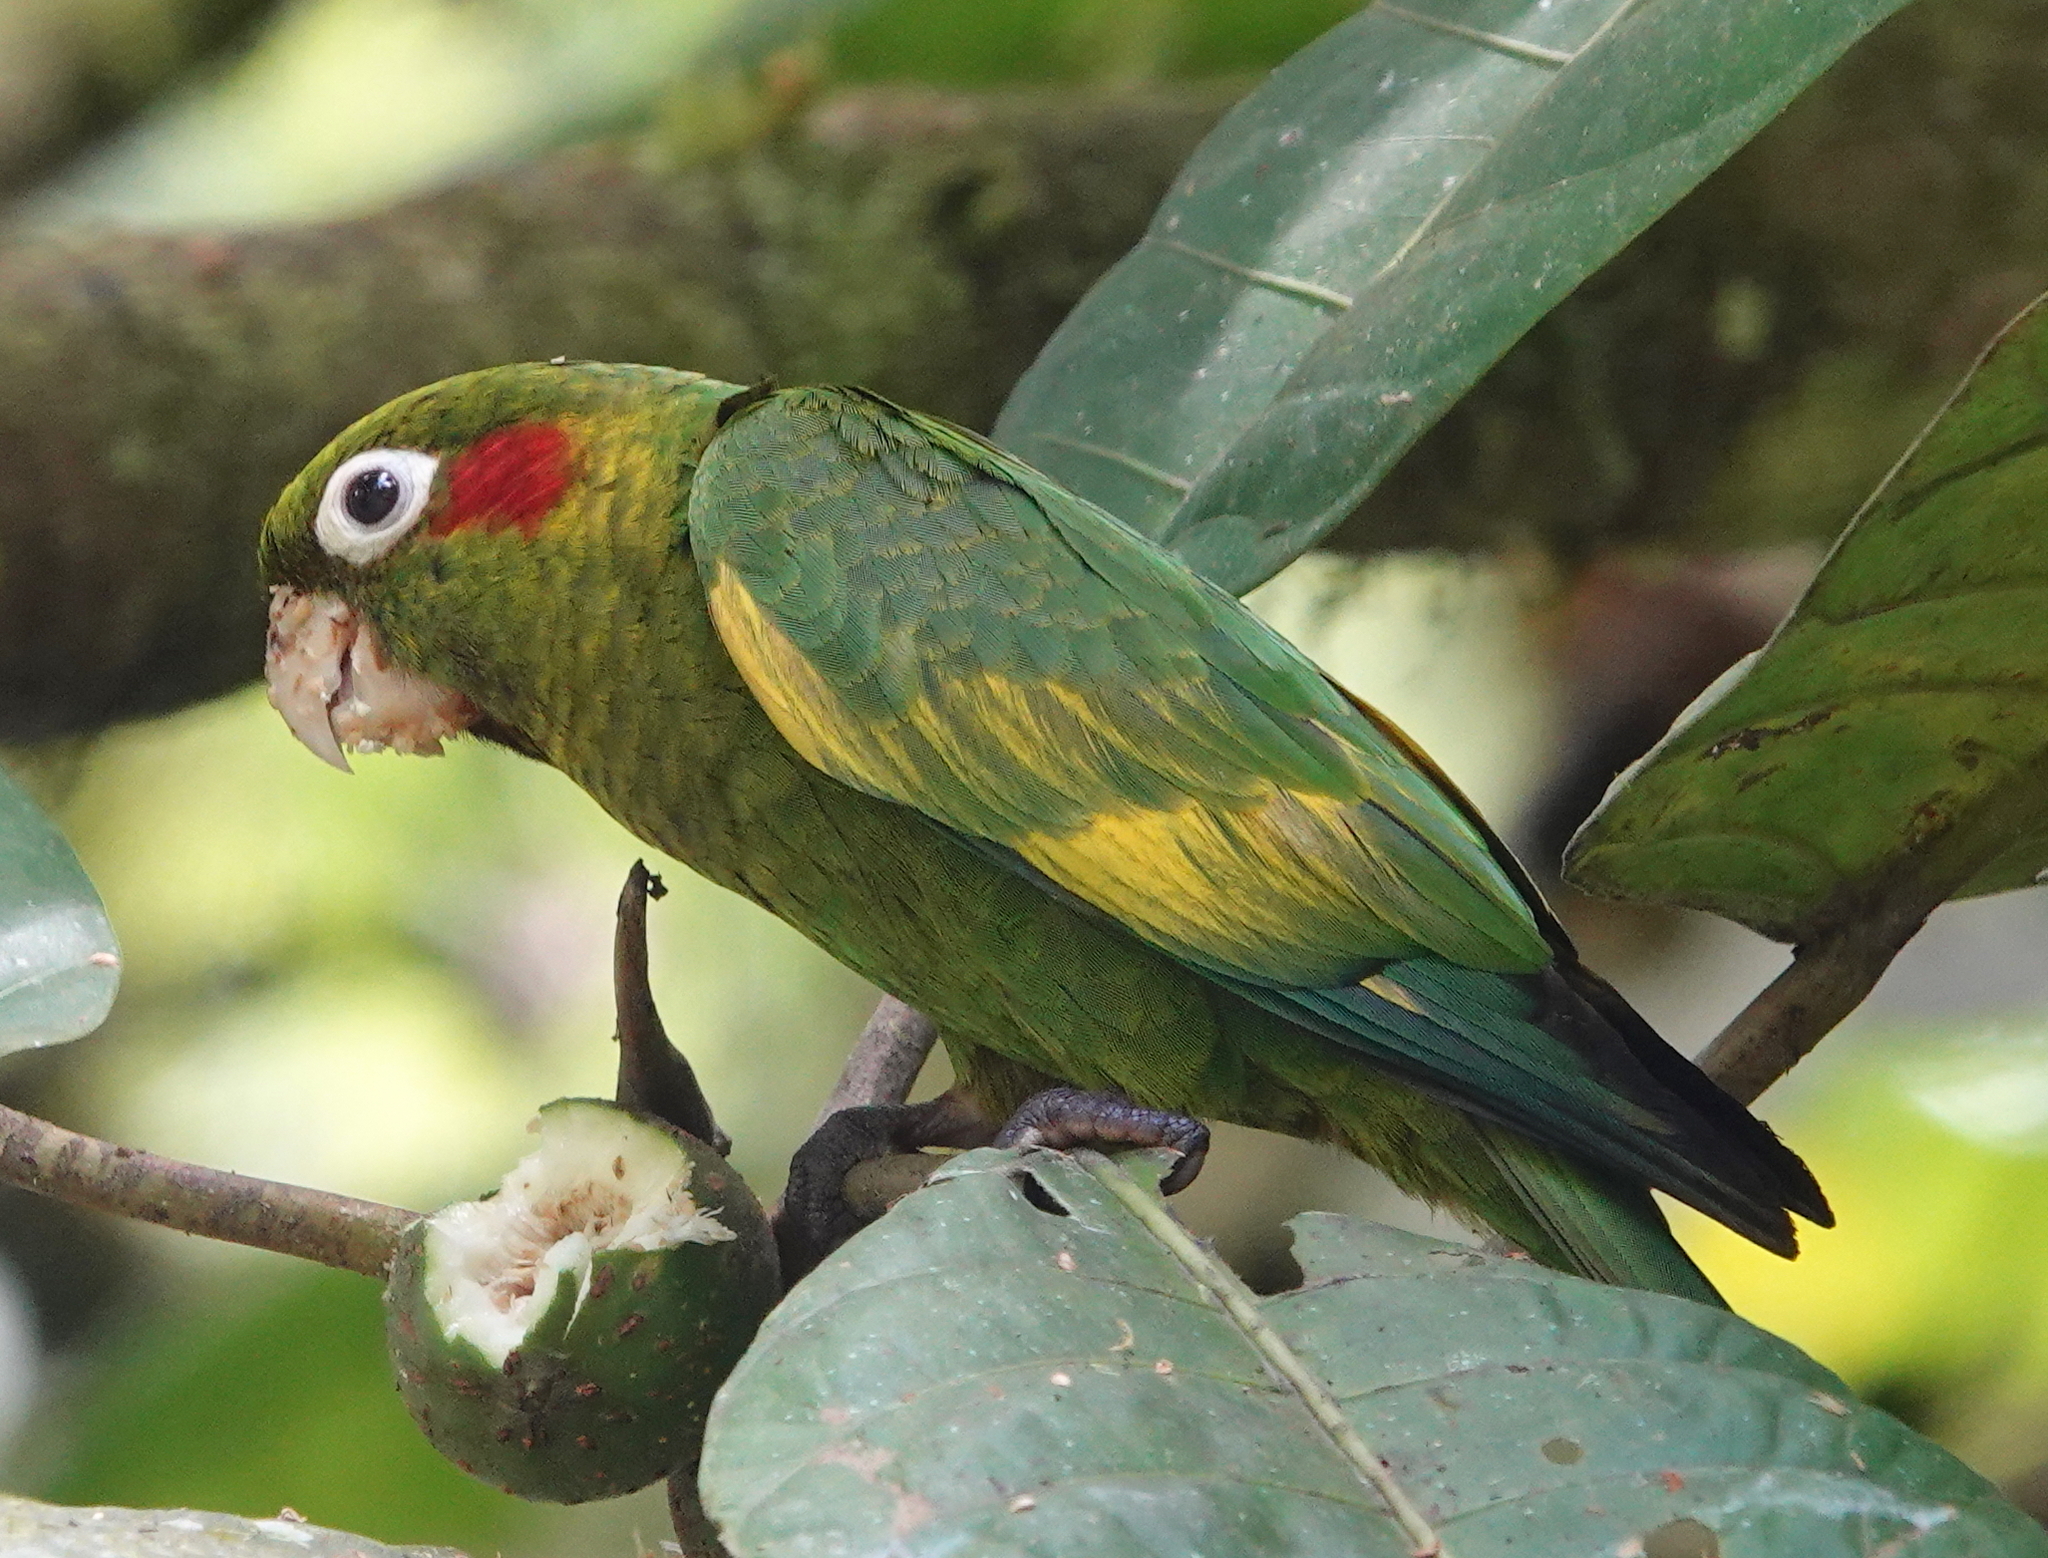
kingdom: Animalia
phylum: Chordata
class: Aves
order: Psittaciformes
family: Psittacidae
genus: Pyrrhura
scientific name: Pyrrhura hoffmanni
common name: Sulphur-winged parakeet
